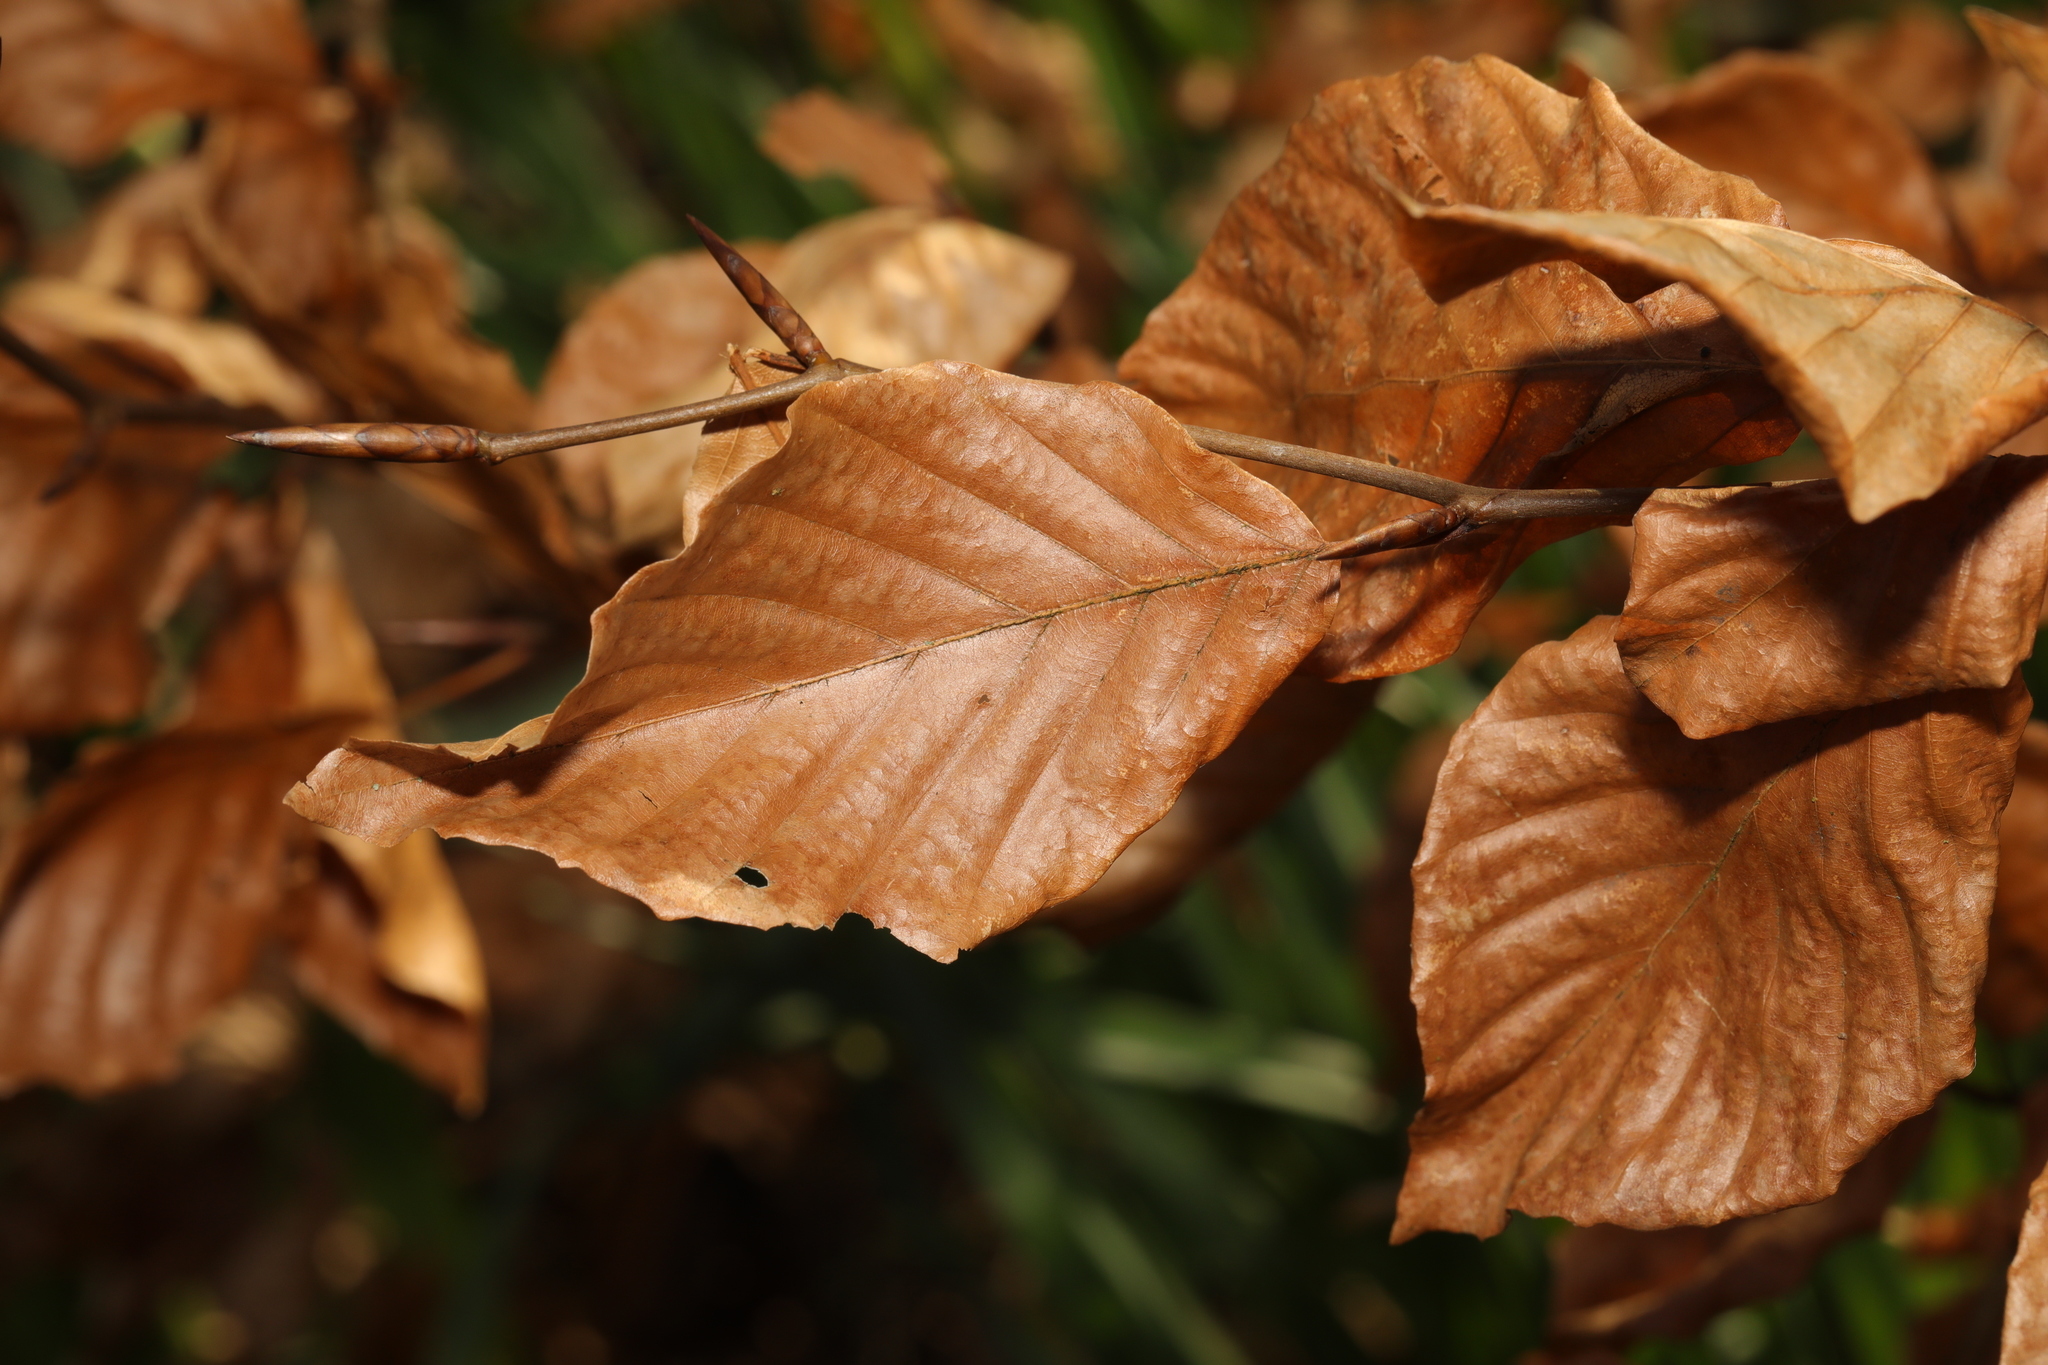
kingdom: Plantae
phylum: Tracheophyta
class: Magnoliopsida
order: Fagales
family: Fagaceae
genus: Fagus
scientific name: Fagus sylvatica
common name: Beech
